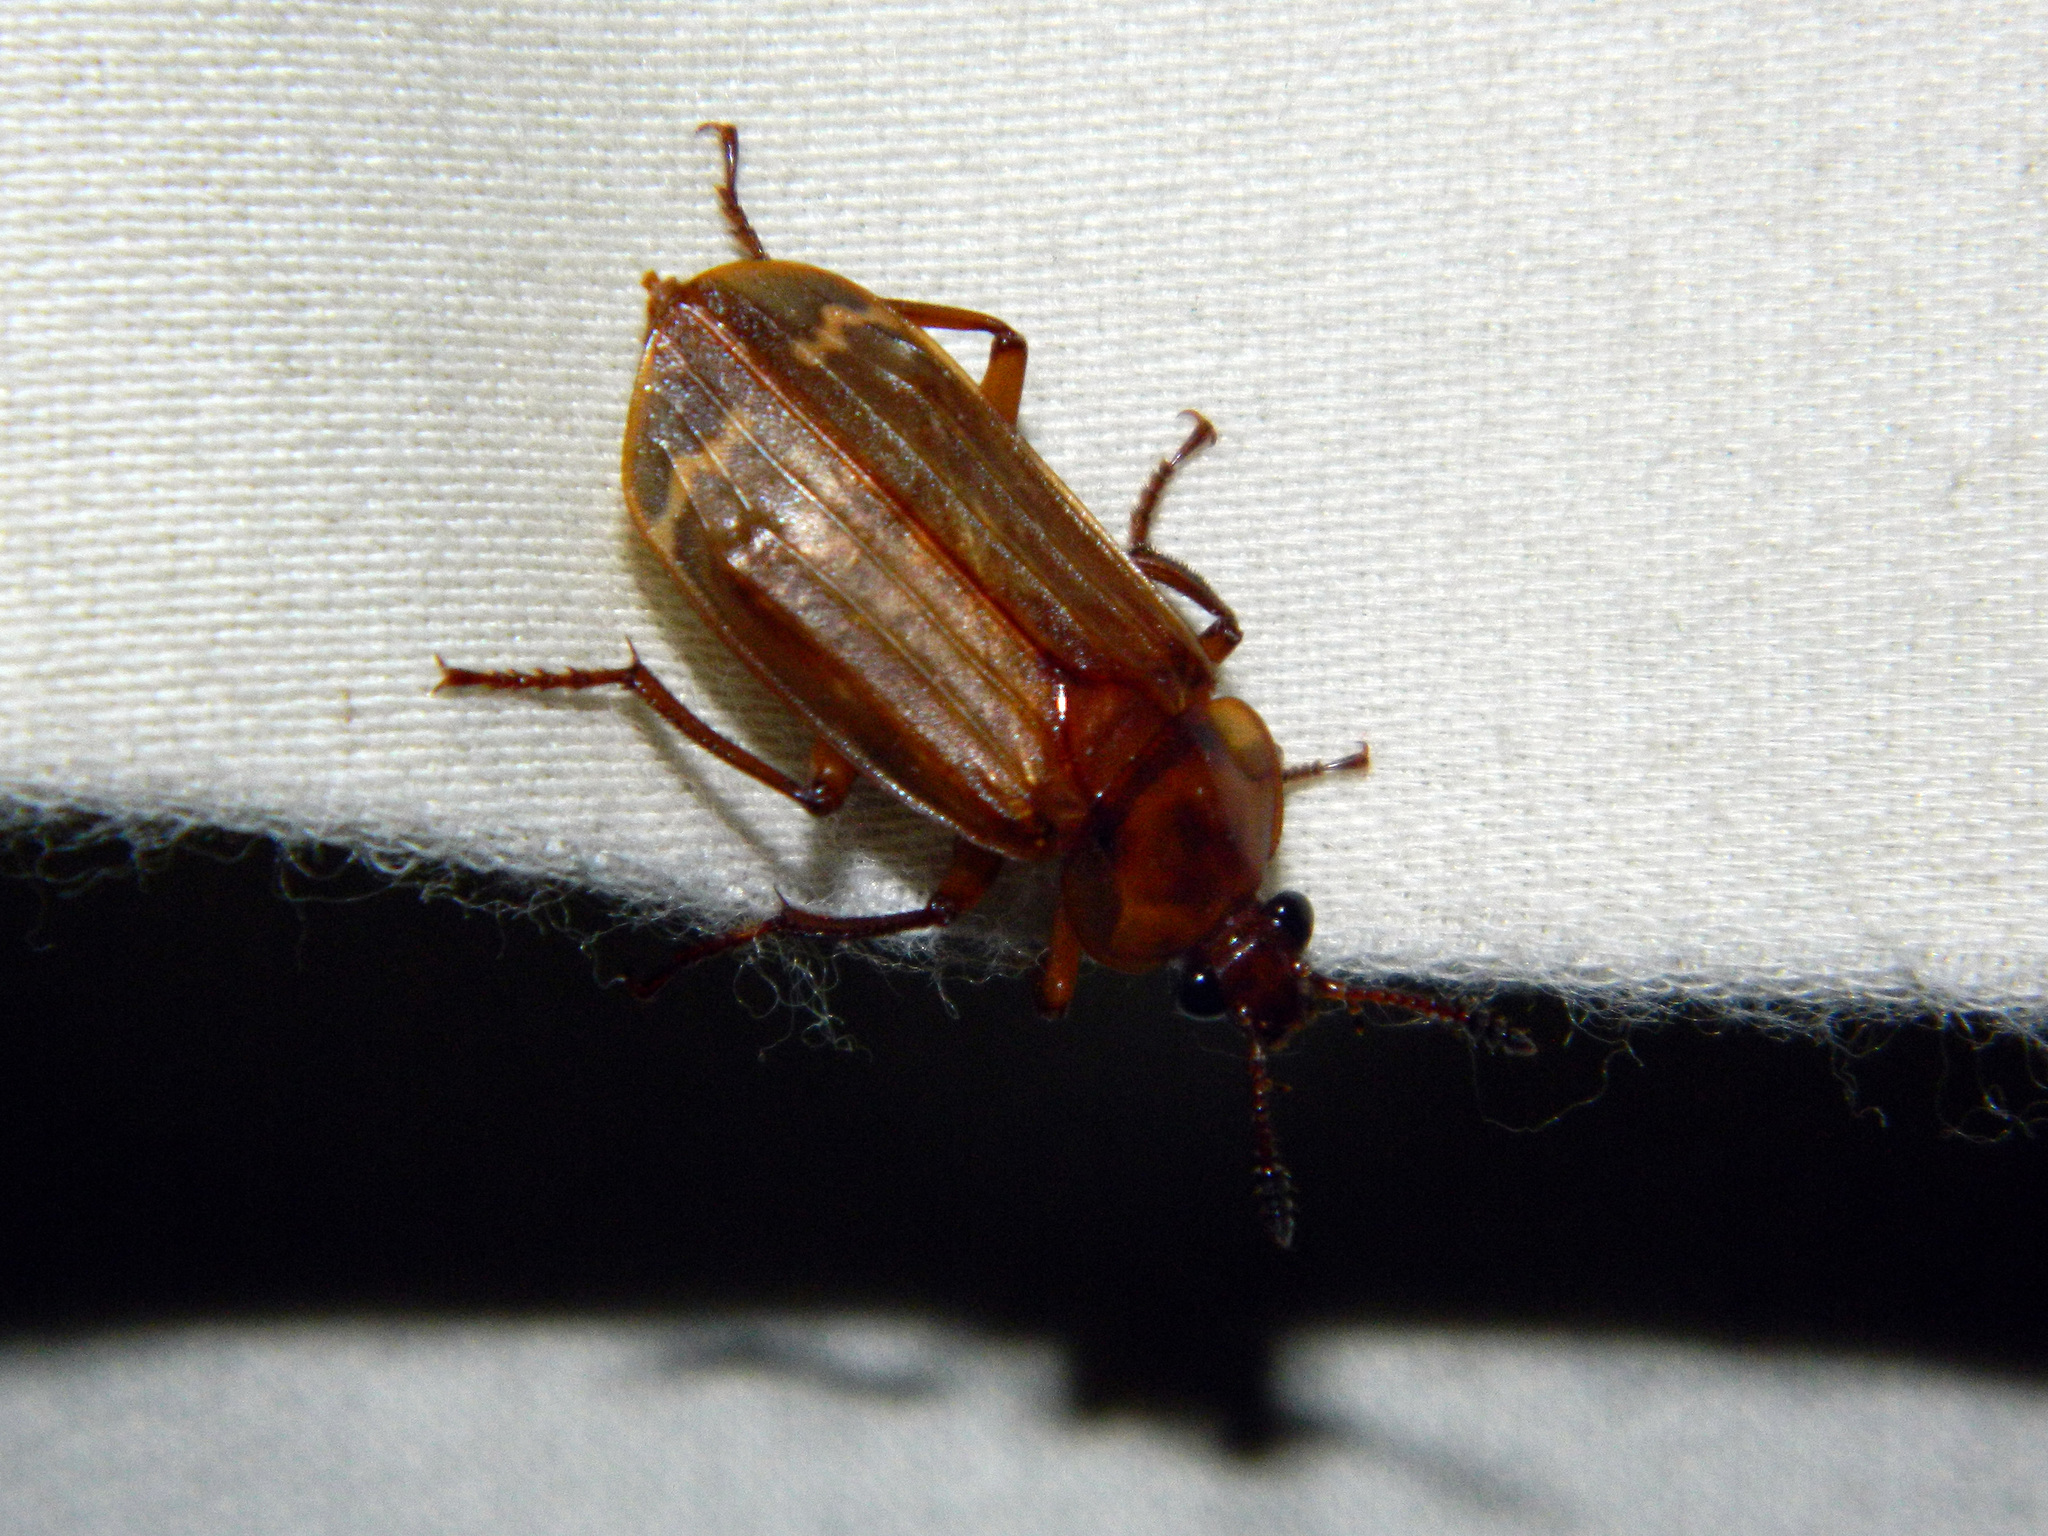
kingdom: Animalia
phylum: Arthropoda
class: Insecta
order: Coleoptera
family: Staphylinidae
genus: Necrodes
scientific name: Necrodes surinamensis
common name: Red-lined carrion beetle
